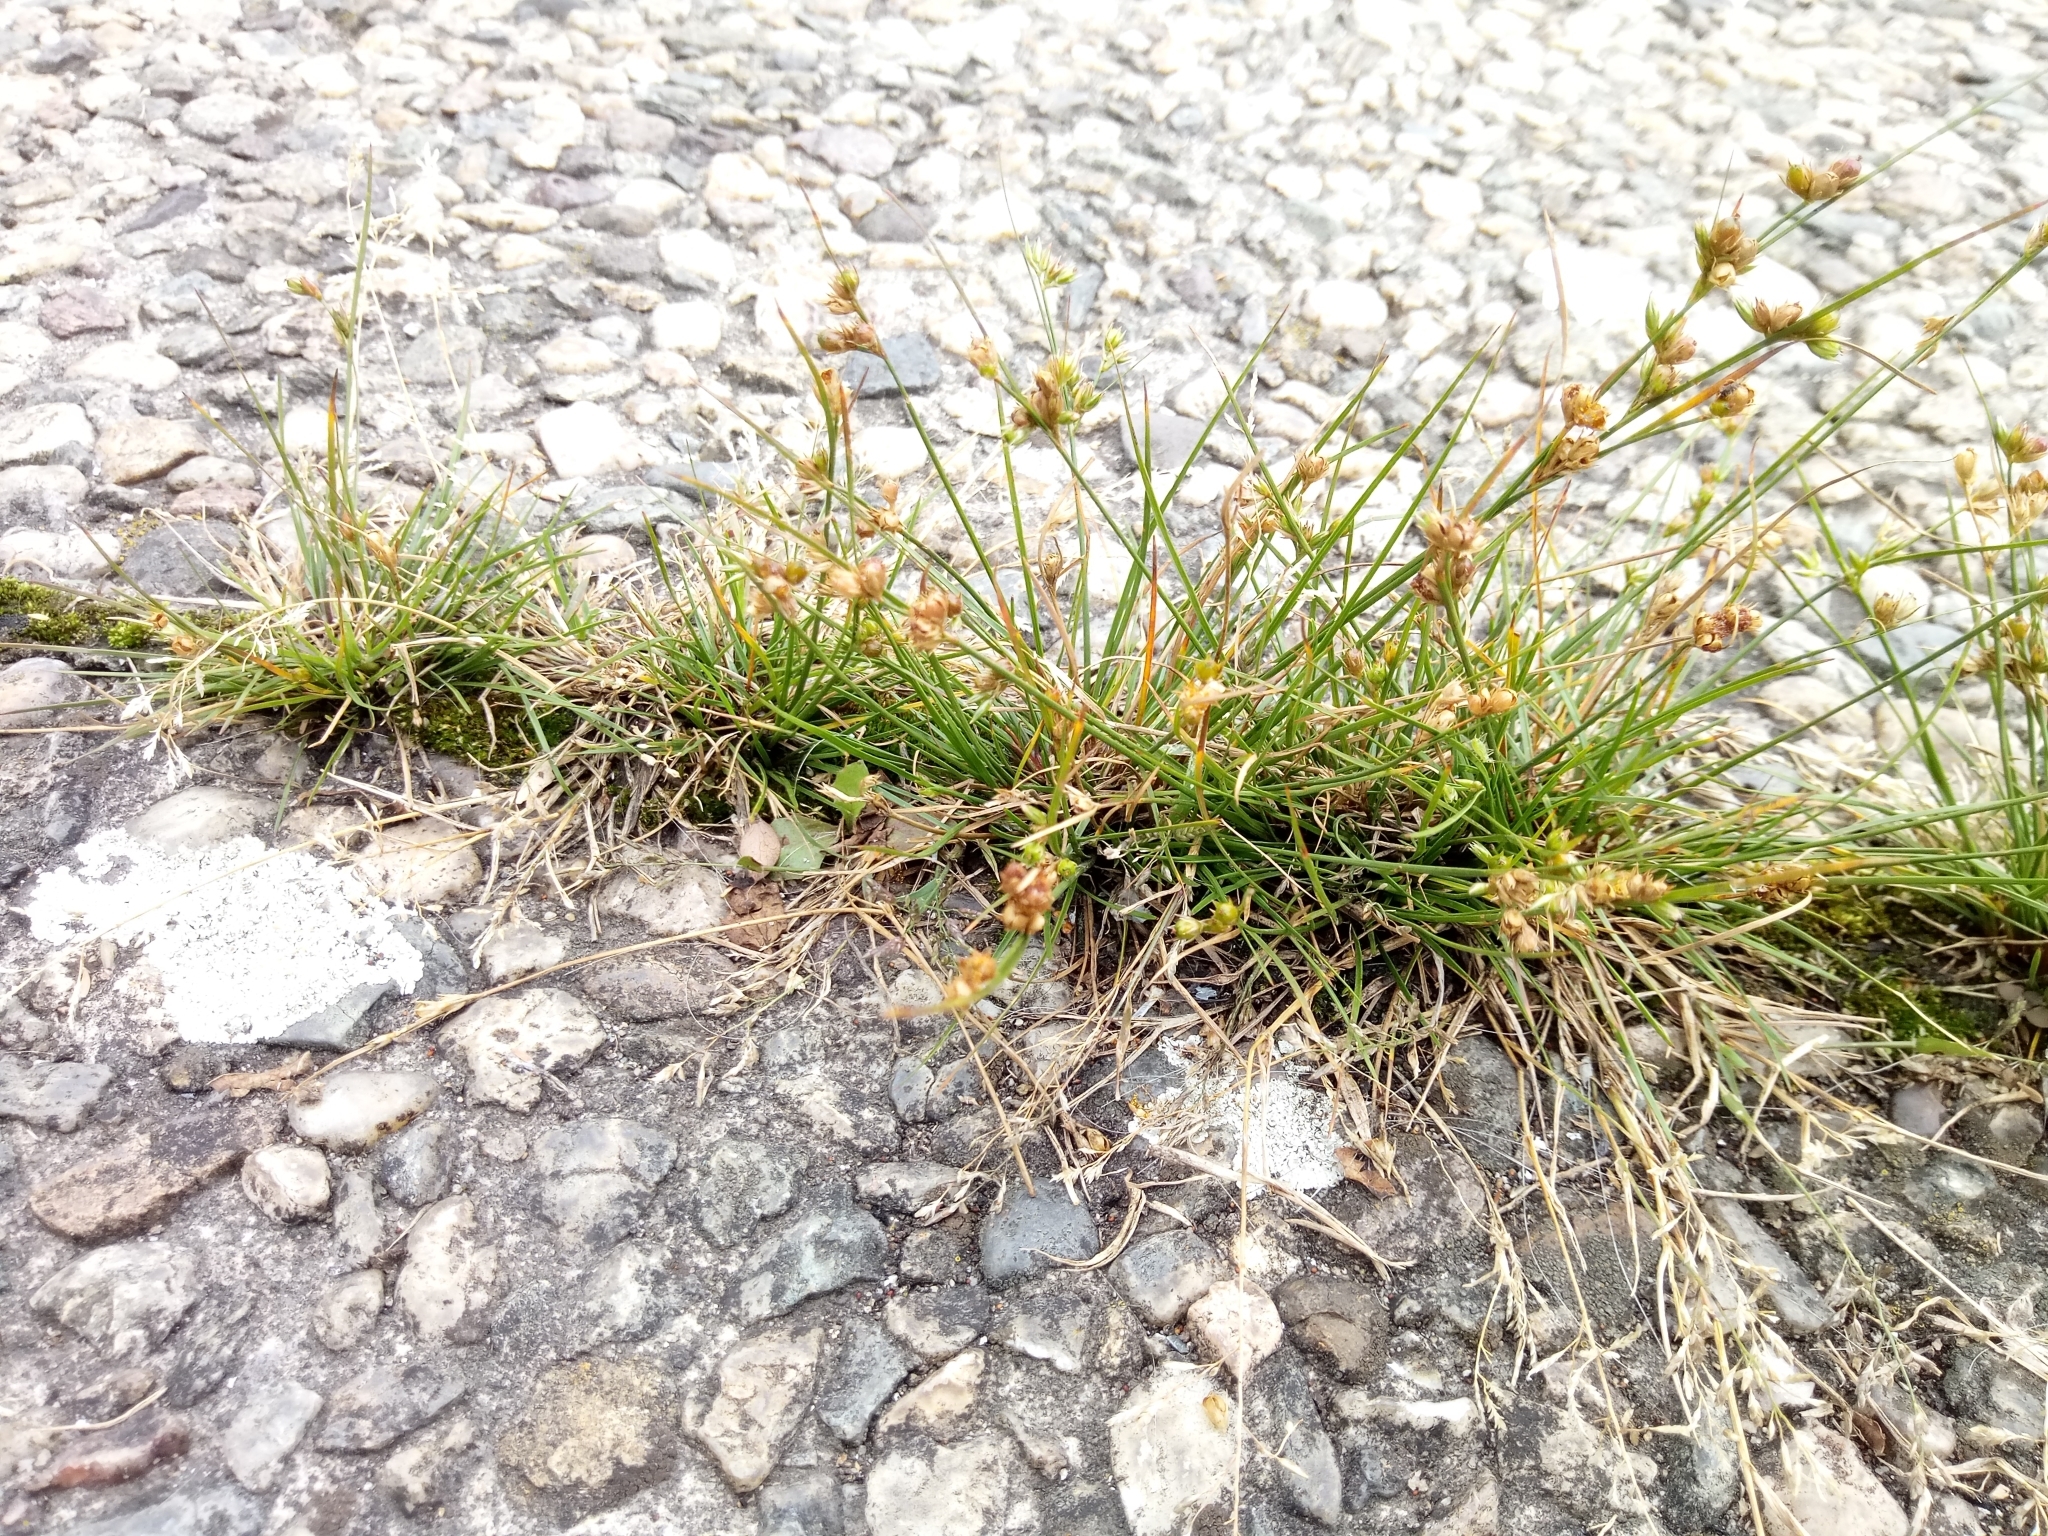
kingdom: Plantae
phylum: Tracheophyta
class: Liliopsida
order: Poales
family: Juncaceae
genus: Juncus
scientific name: Juncus tenuis
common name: Slender rush
